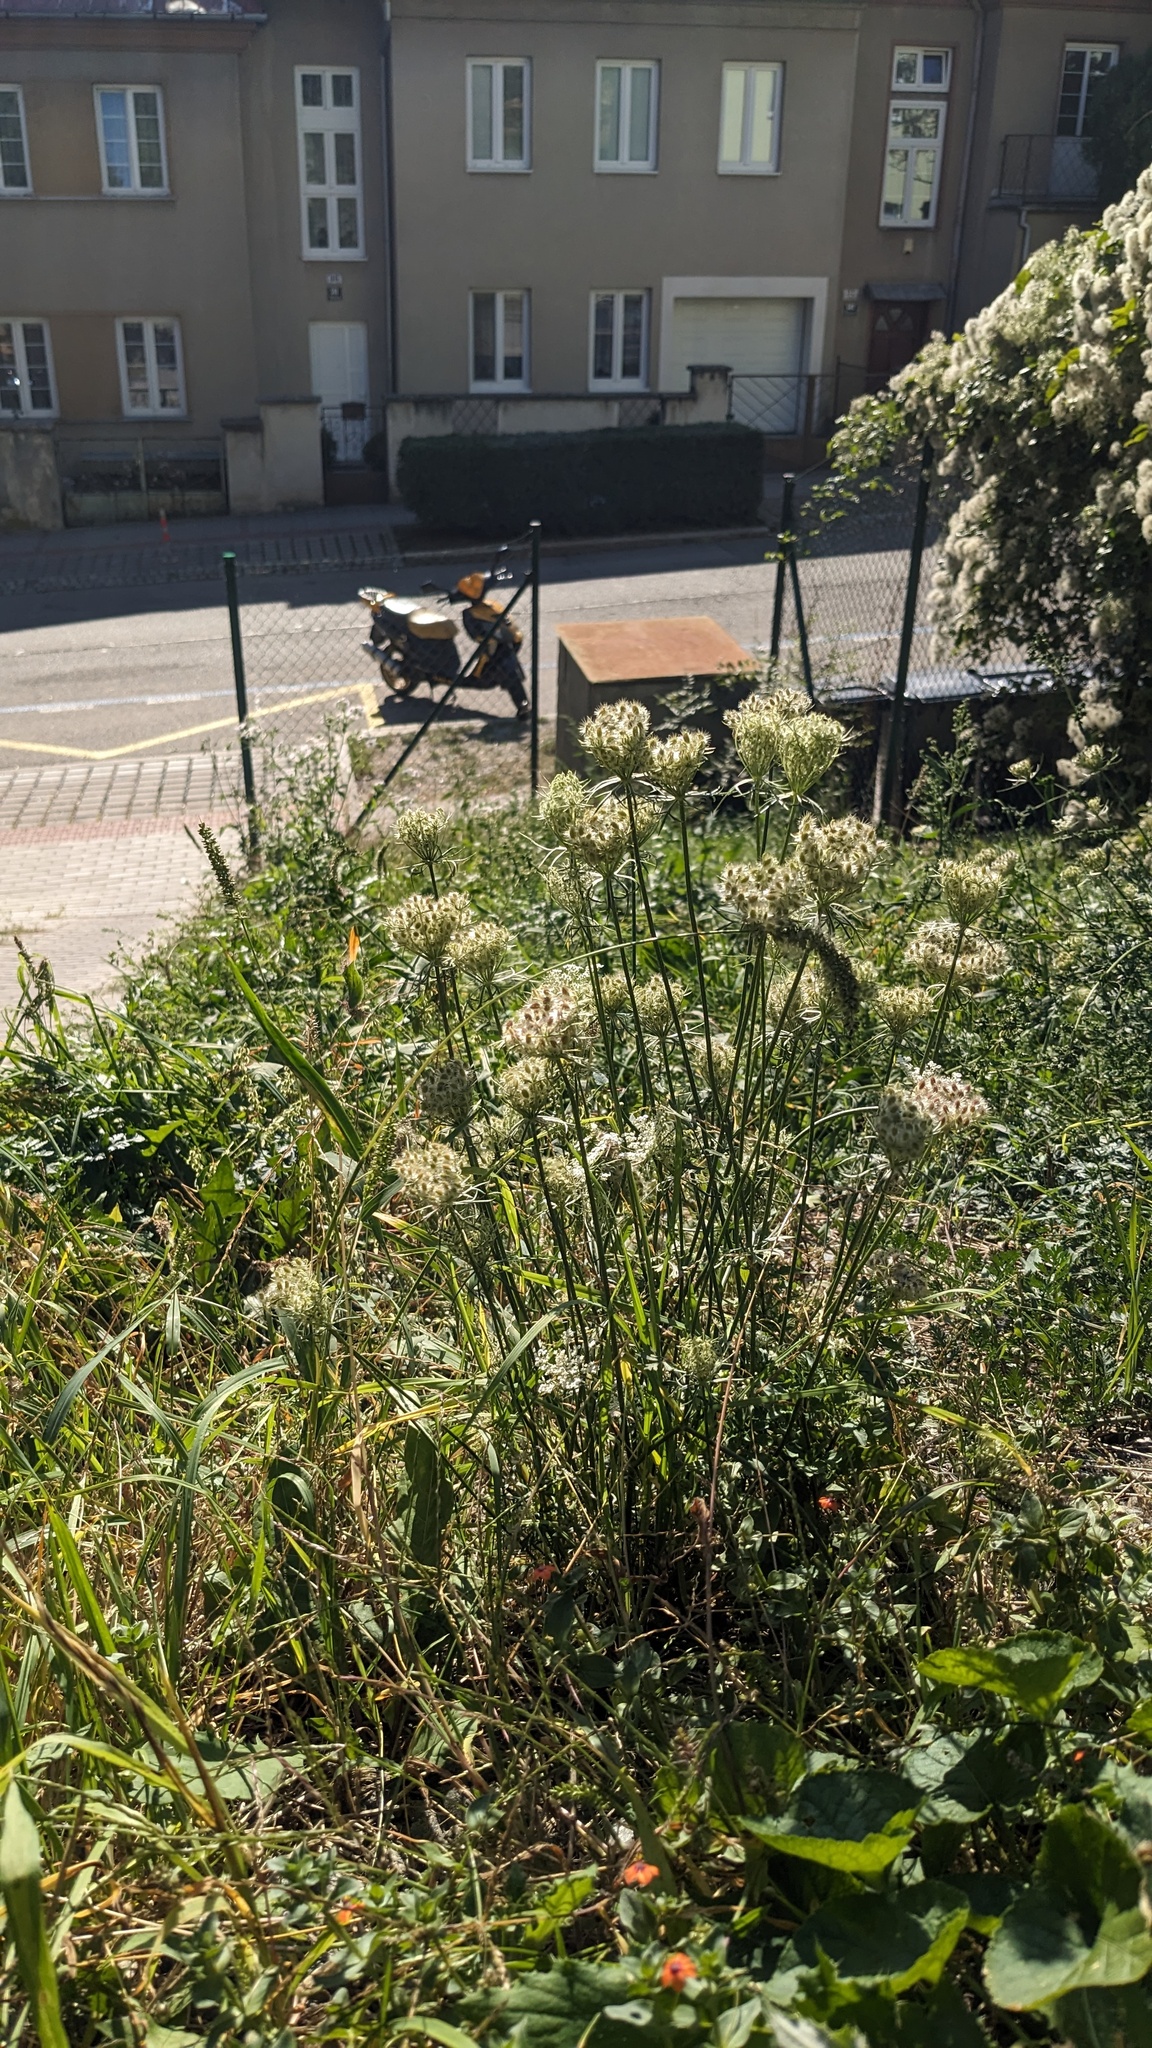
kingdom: Plantae
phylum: Tracheophyta
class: Magnoliopsida
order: Apiales
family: Apiaceae
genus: Daucus
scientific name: Daucus carota
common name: Wild carrot
